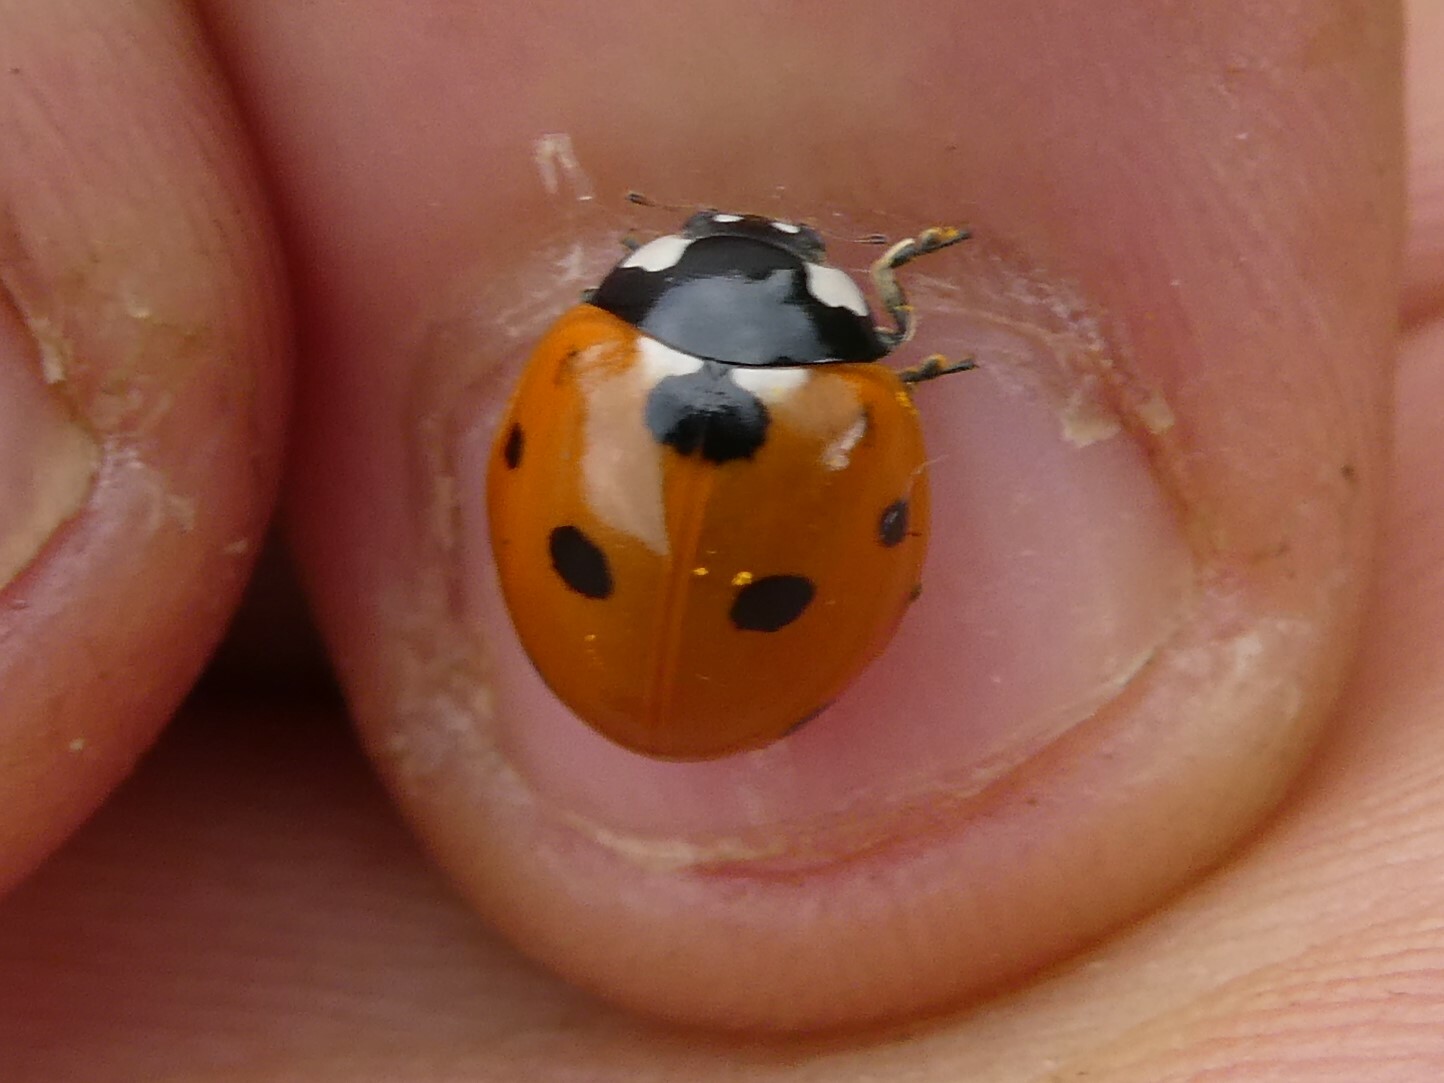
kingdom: Animalia
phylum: Arthropoda
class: Insecta
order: Coleoptera
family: Coccinellidae
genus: Coccinella
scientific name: Coccinella septempunctata
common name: Sevenspotted lady beetle
